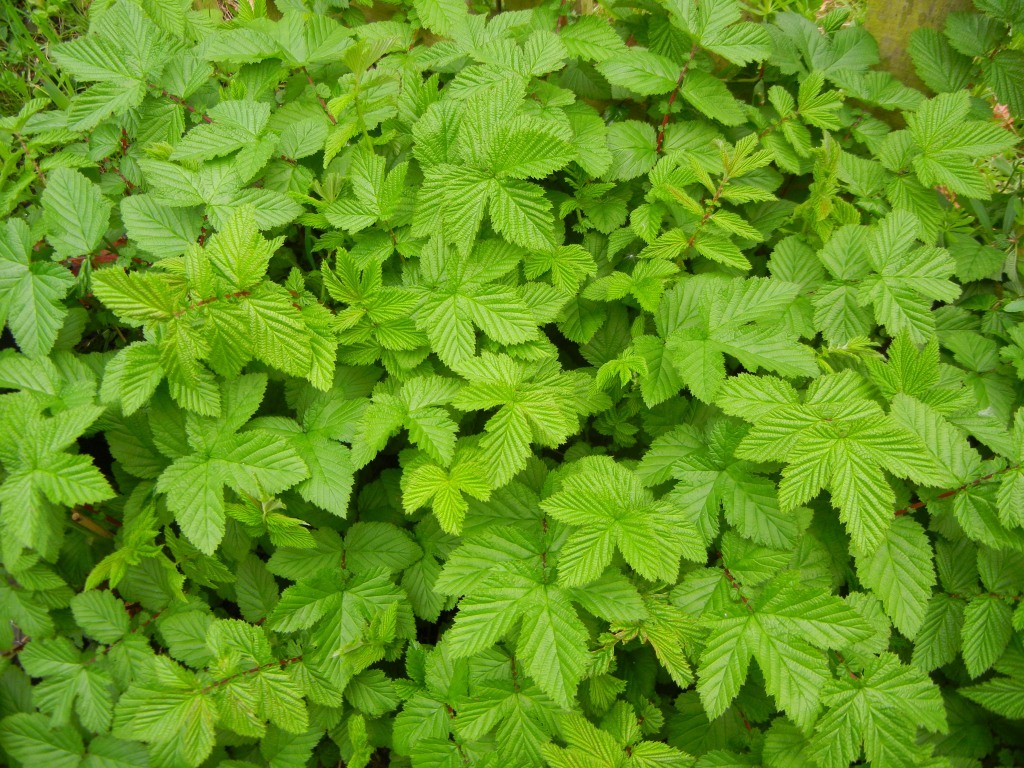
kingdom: Plantae
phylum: Tracheophyta
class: Magnoliopsida
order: Rosales
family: Rosaceae
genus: Filipendula
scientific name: Filipendula ulmaria
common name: Meadowsweet
